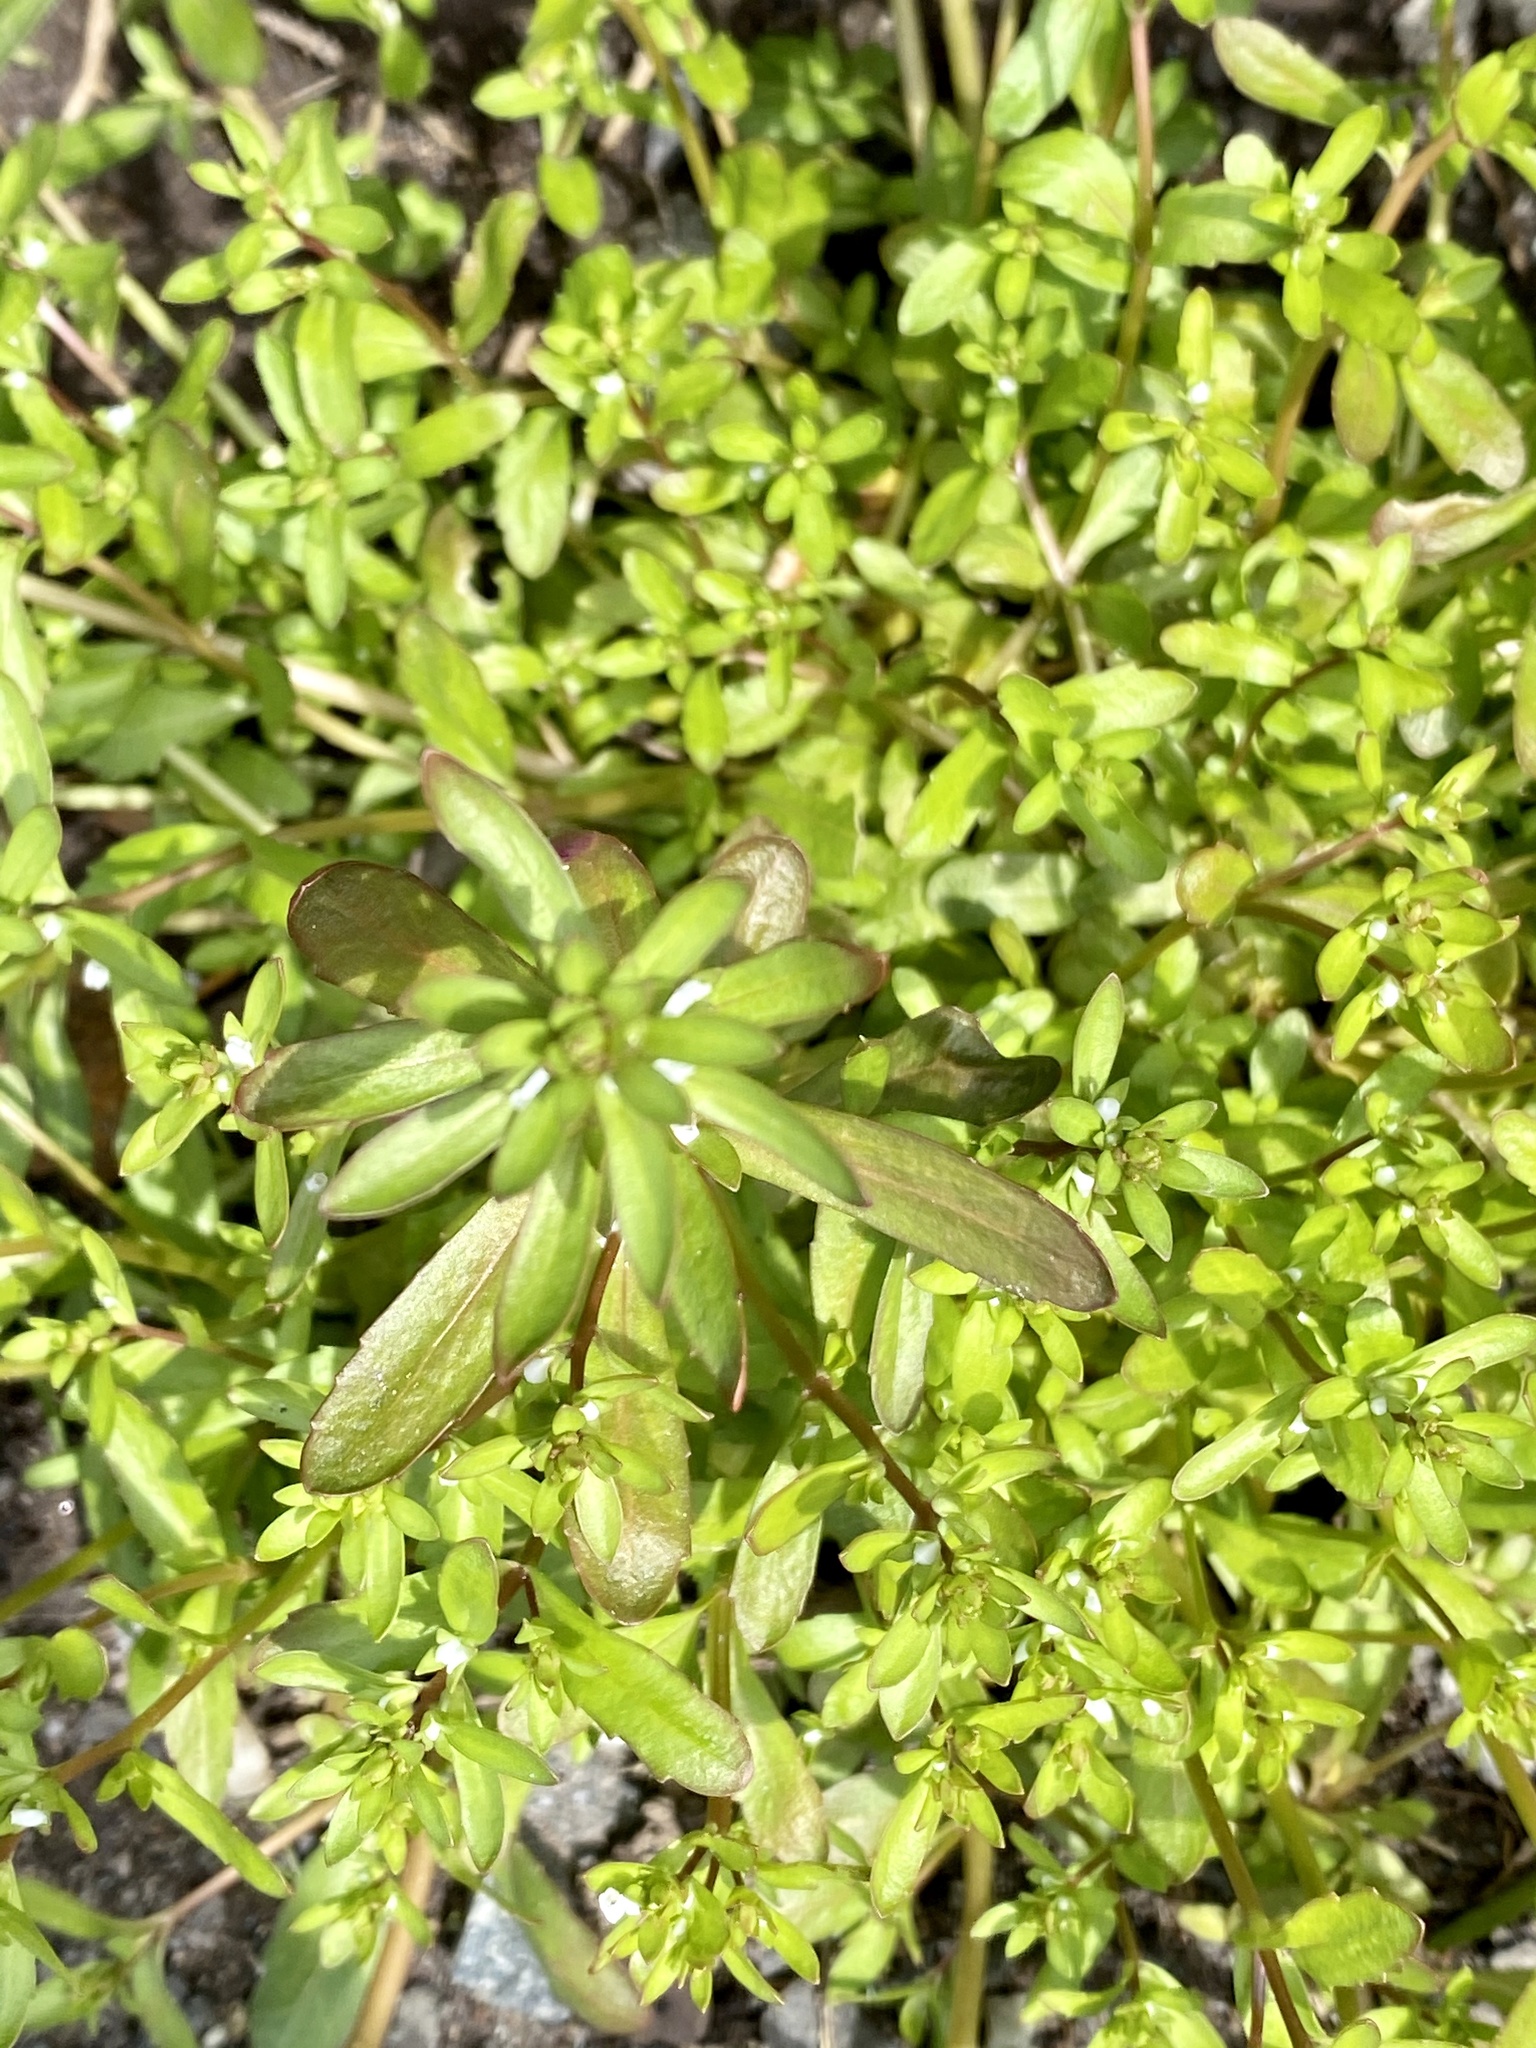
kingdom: Plantae
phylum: Tracheophyta
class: Magnoliopsida
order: Lamiales
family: Plantaginaceae
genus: Veronica
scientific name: Veronica peregrina
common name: Neckweed
